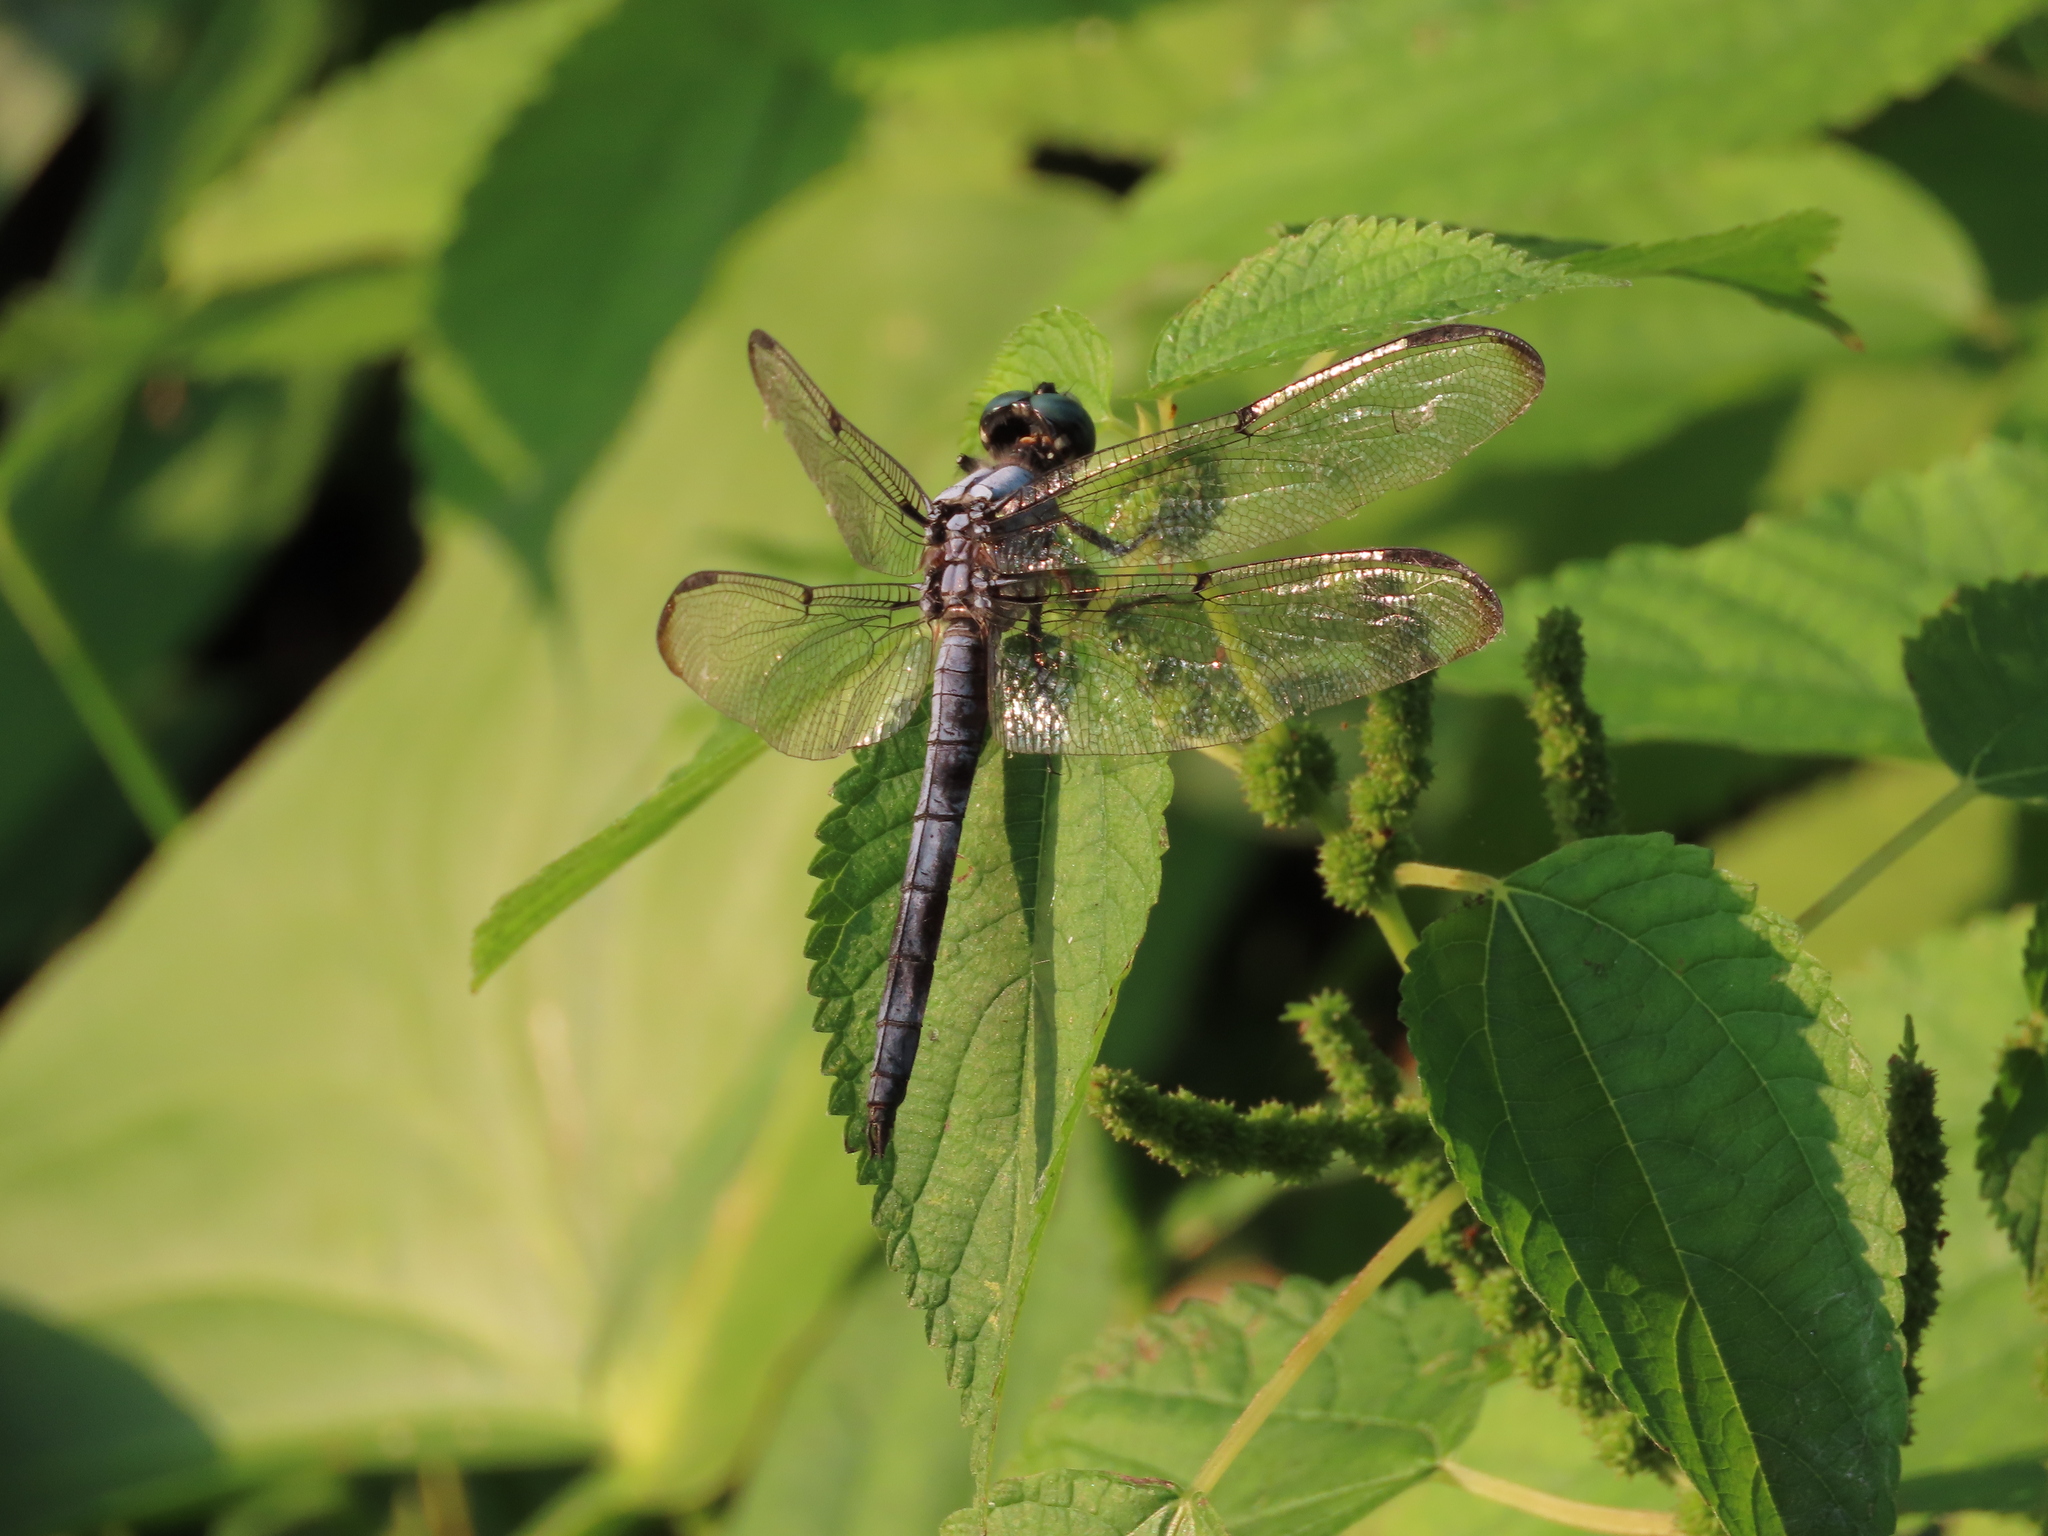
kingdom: Animalia
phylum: Arthropoda
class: Insecta
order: Odonata
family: Libellulidae
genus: Libellula
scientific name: Libellula vibrans
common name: Great blue skimmer
